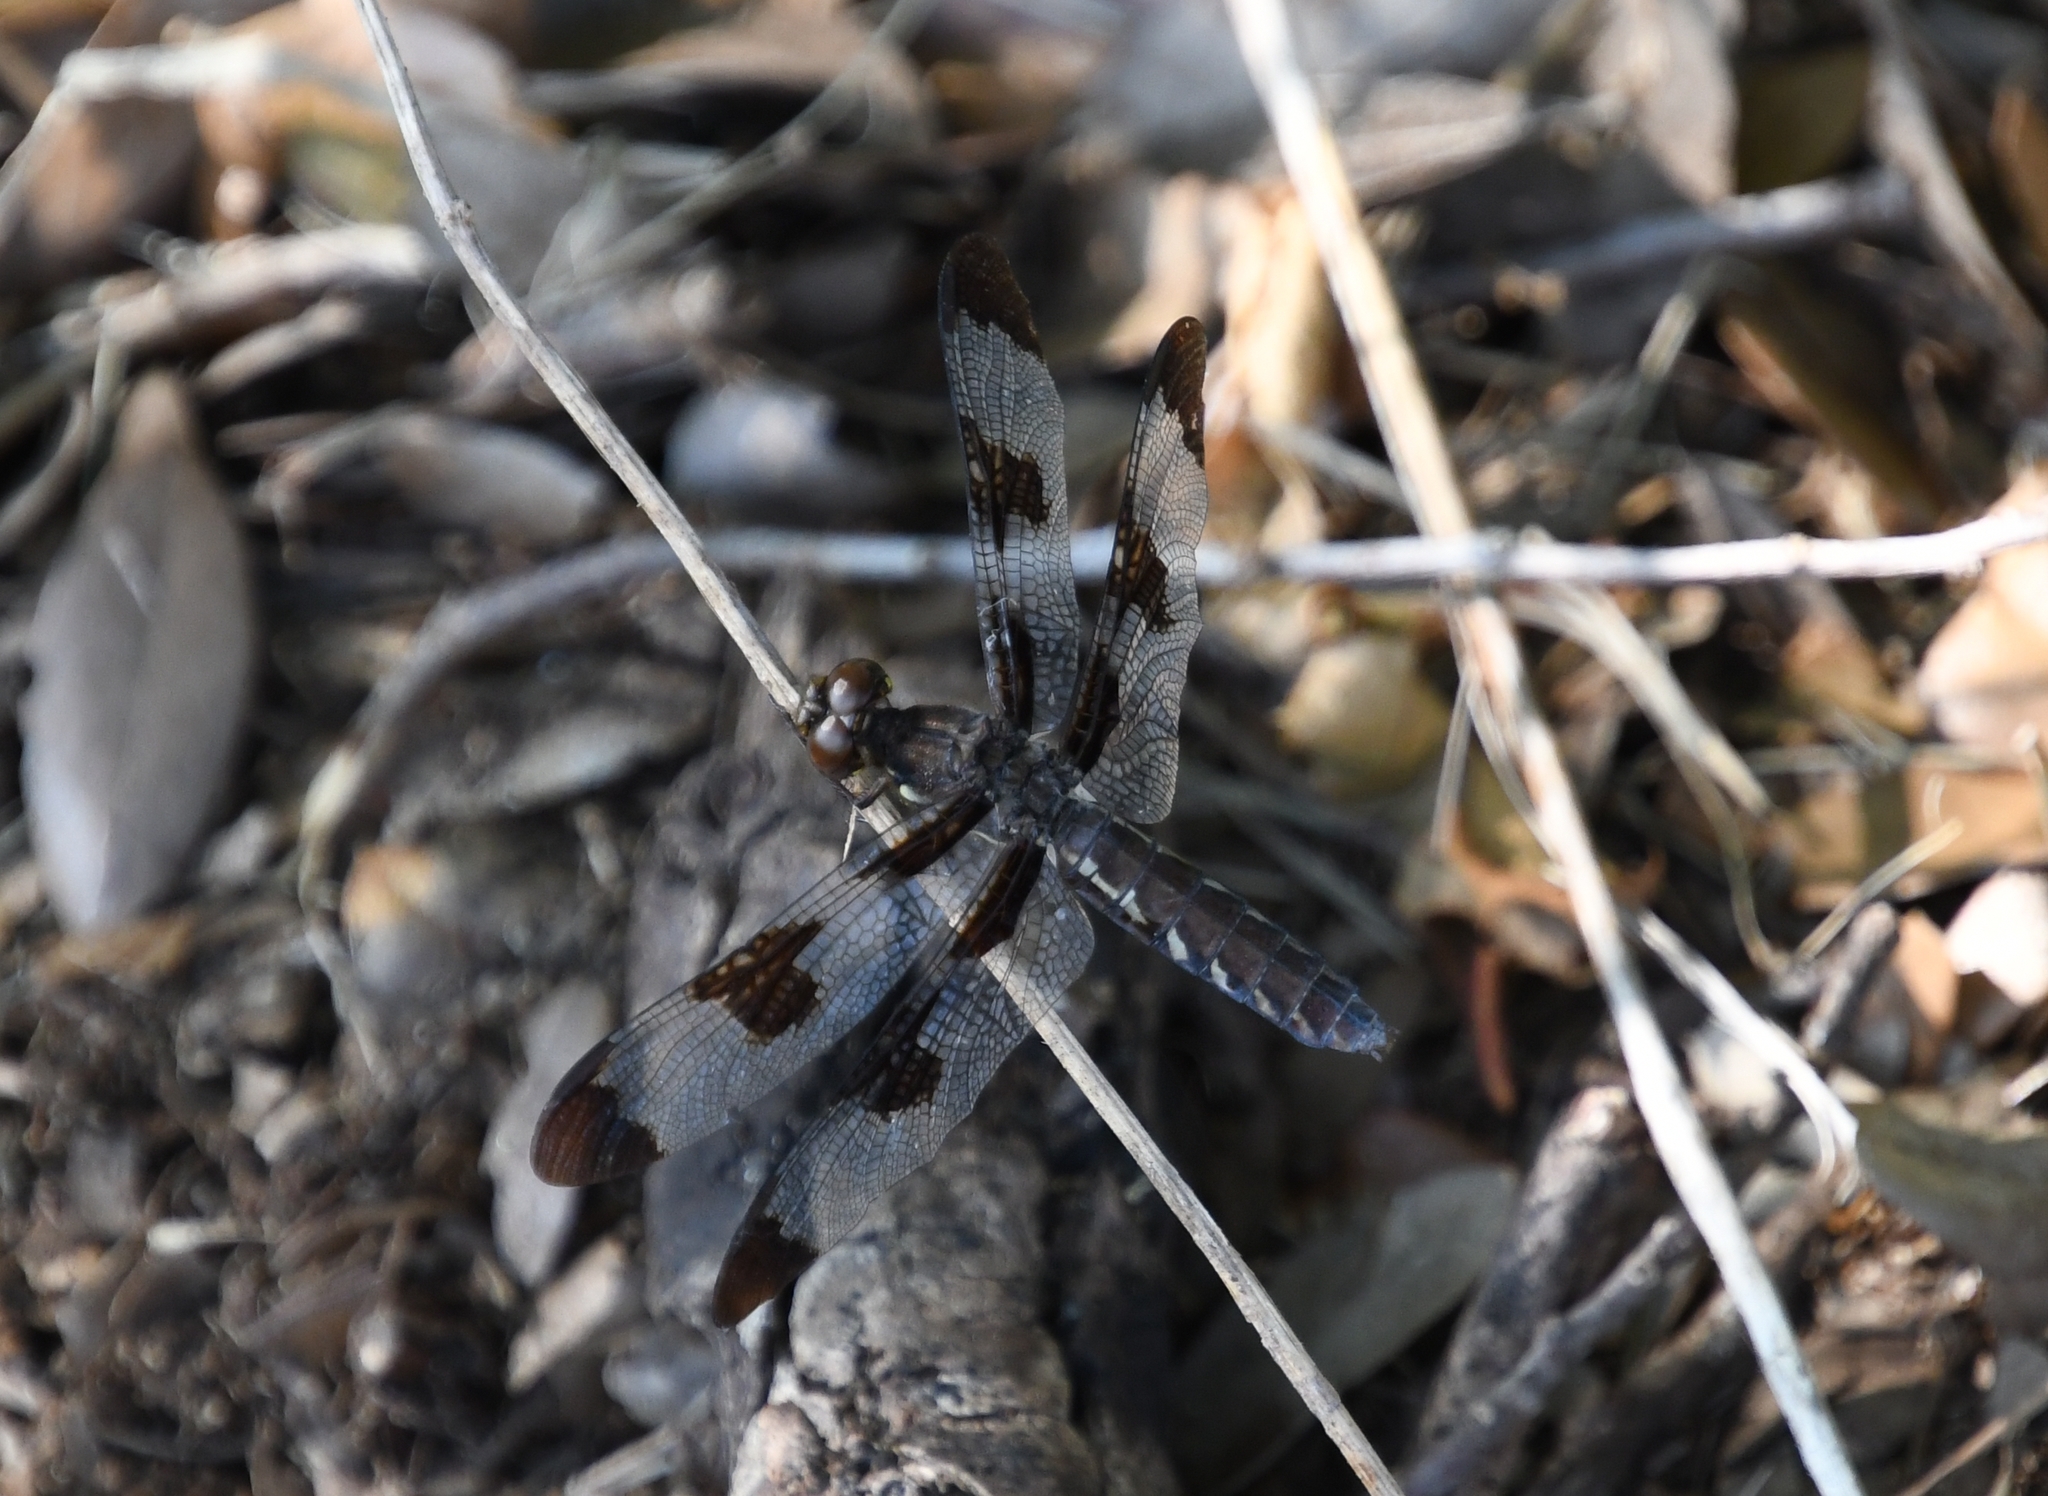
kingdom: Animalia
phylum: Arthropoda
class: Insecta
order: Odonata
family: Libellulidae
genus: Plathemis
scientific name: Plathemis lydia
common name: Common whitetail
